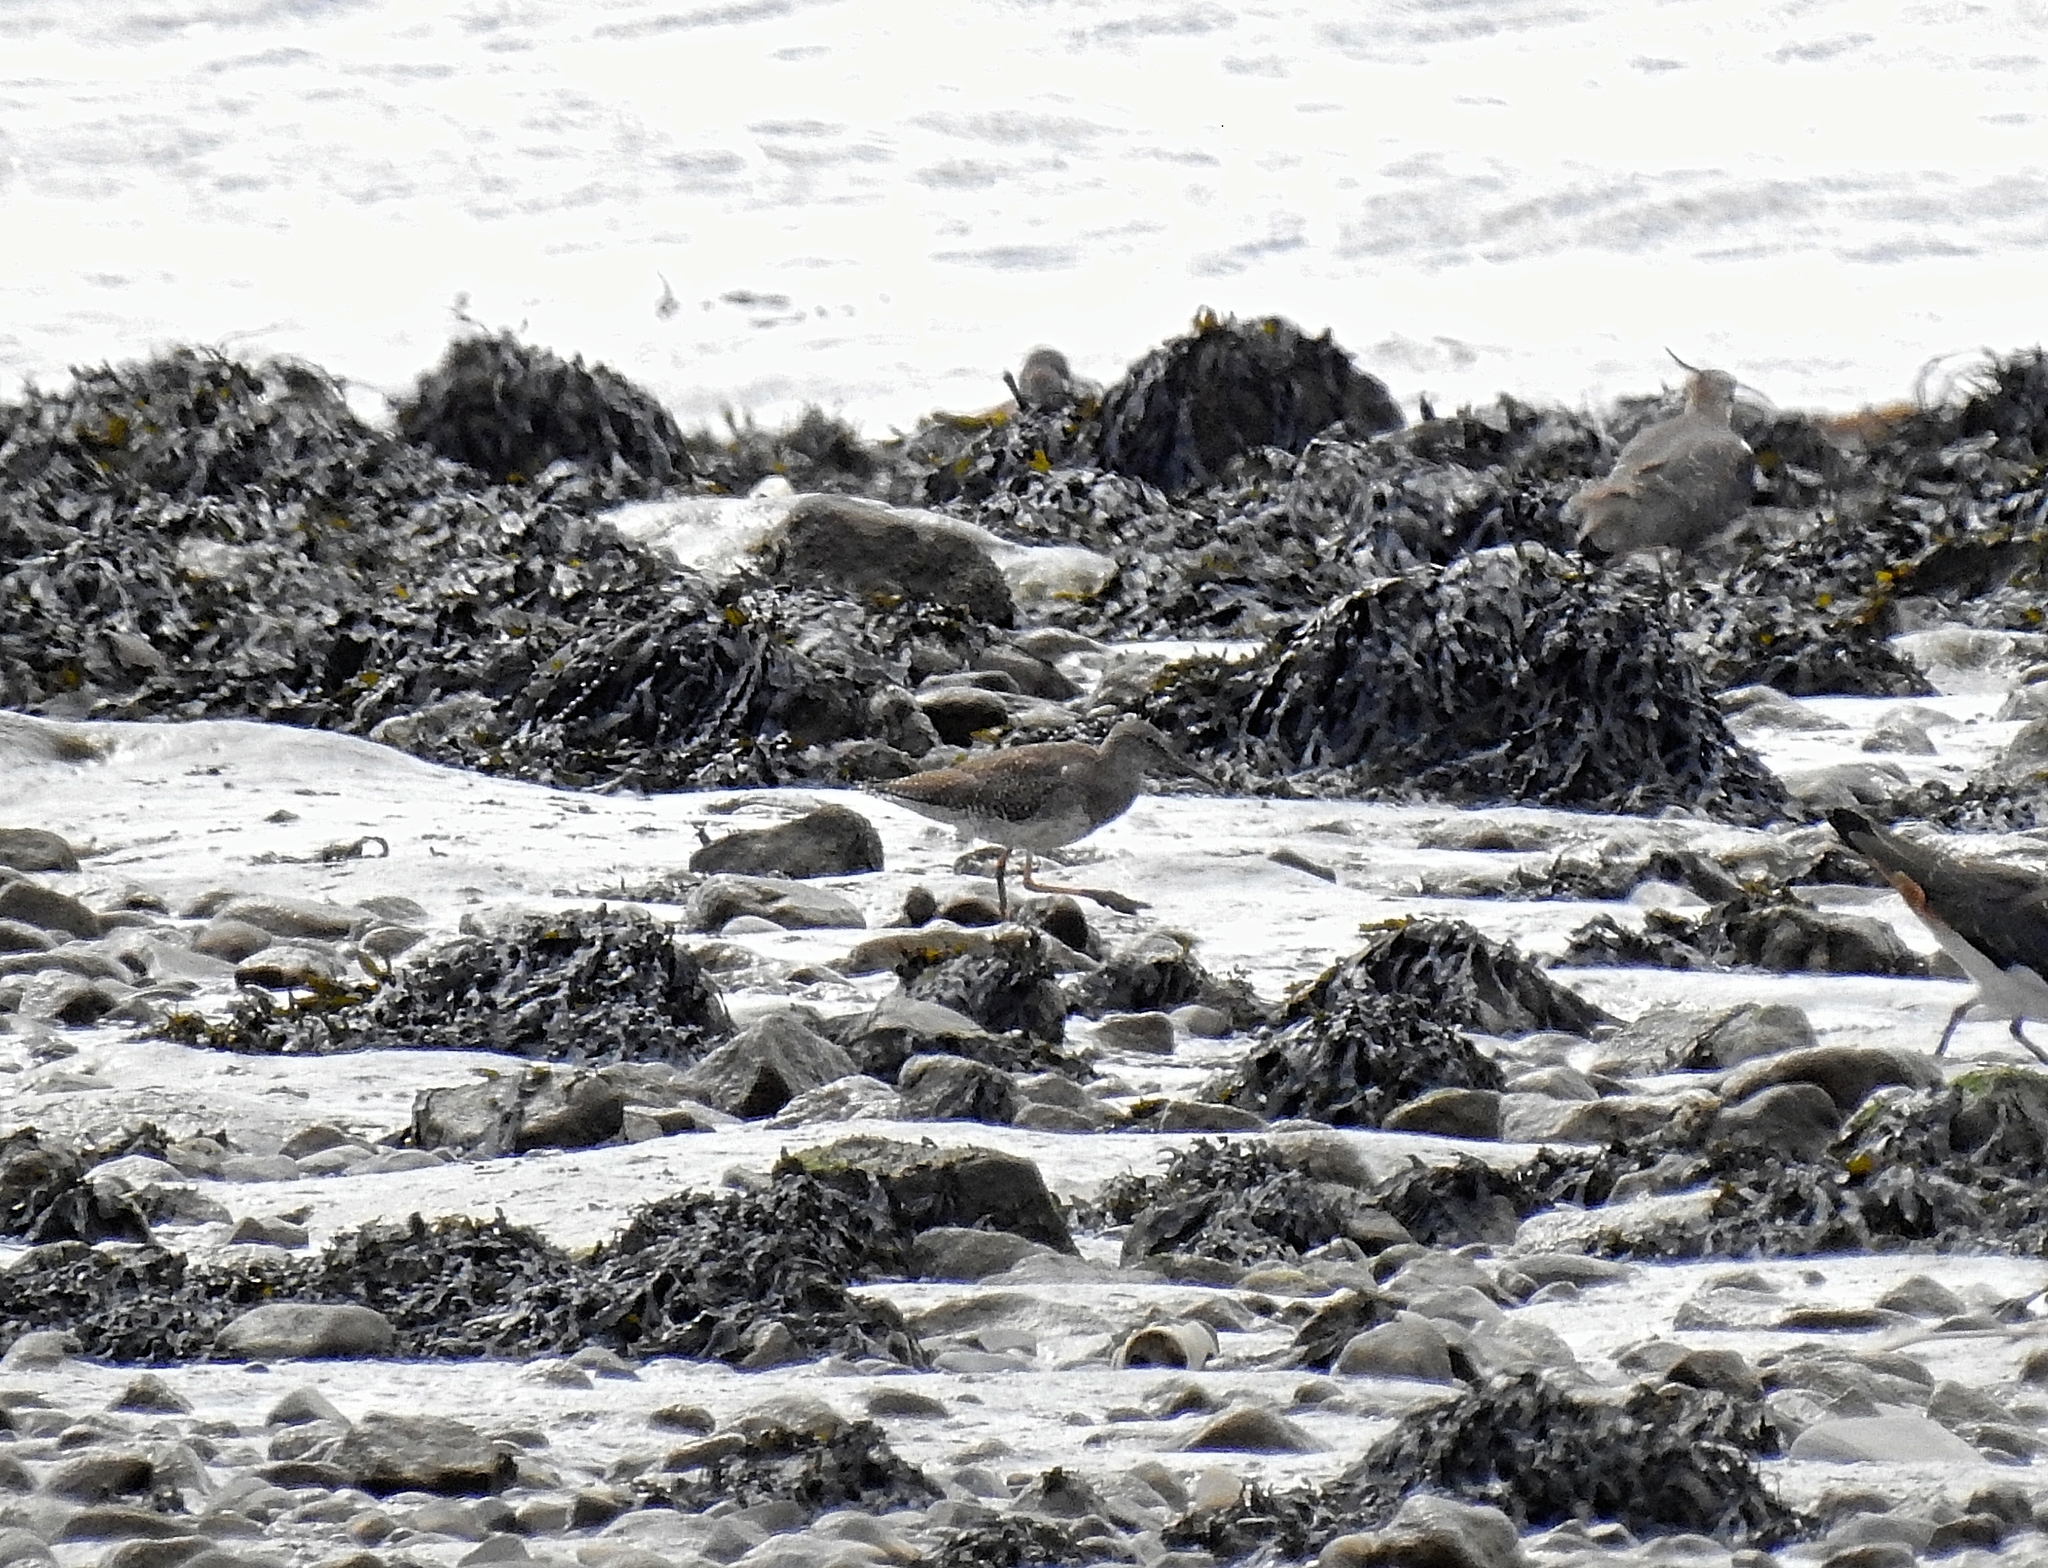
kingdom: Animalia
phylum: Chordata
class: Aves
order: Charadriiformes
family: Scolopacidae
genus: Tringa
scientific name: Tringa totanus
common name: Common redshank
